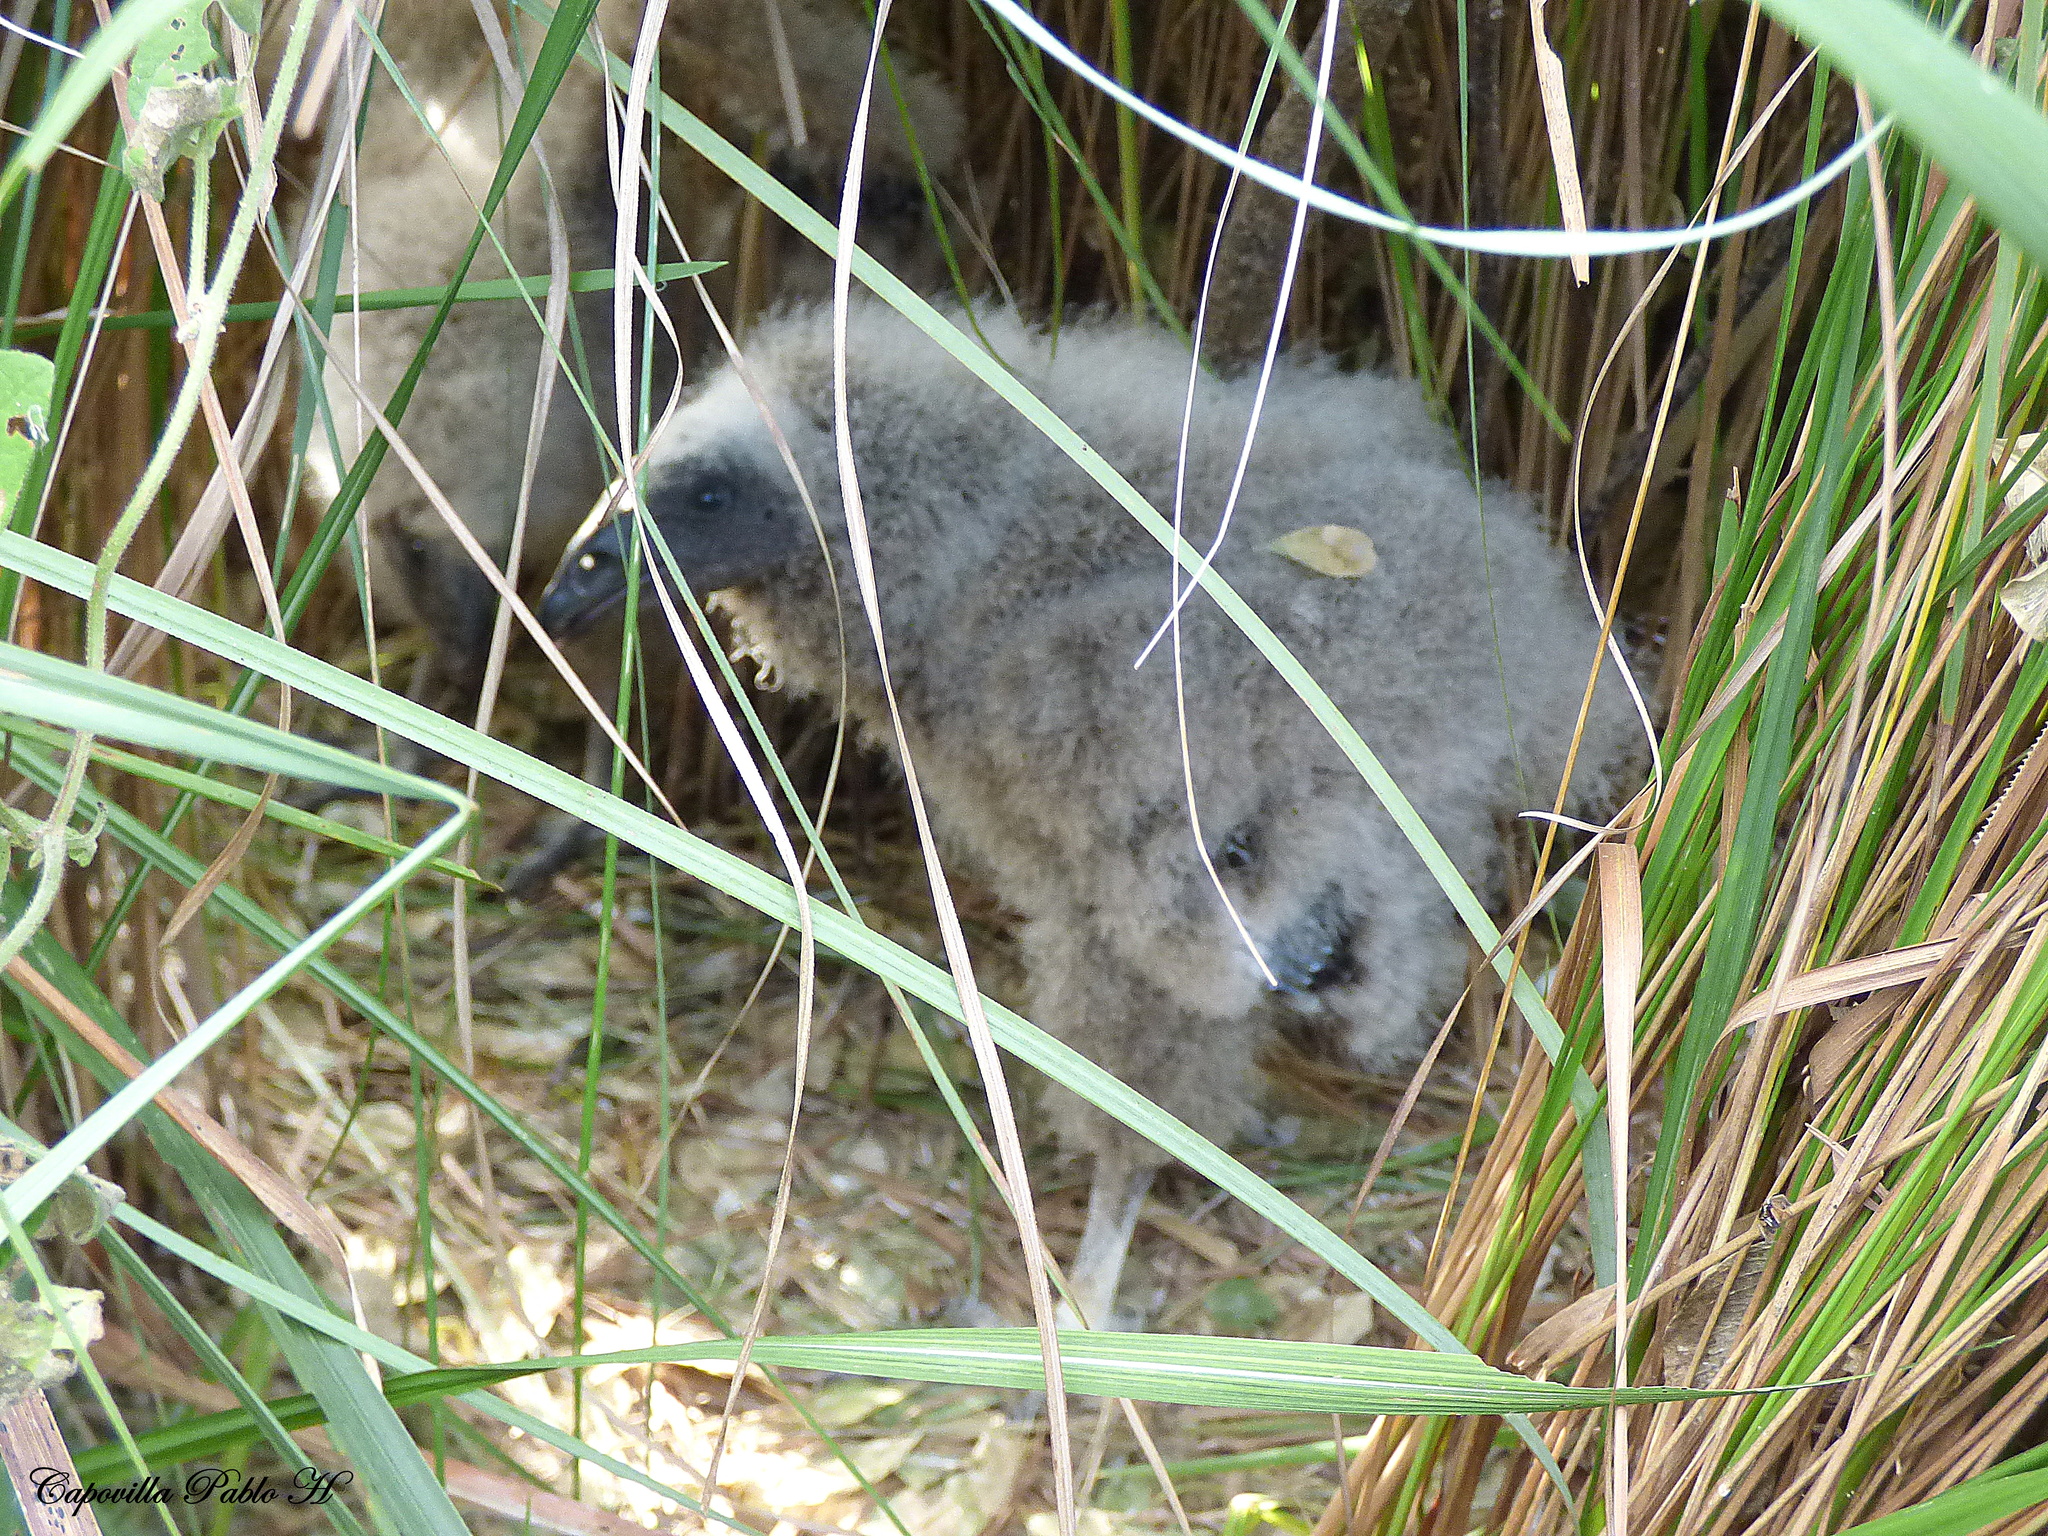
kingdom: Animalia
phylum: Chordata
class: Aves
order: Accipitriformes
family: Cathartidae
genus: Cathartes
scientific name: Cathartes burrovianus
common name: Lesser yellow-headed vulture
